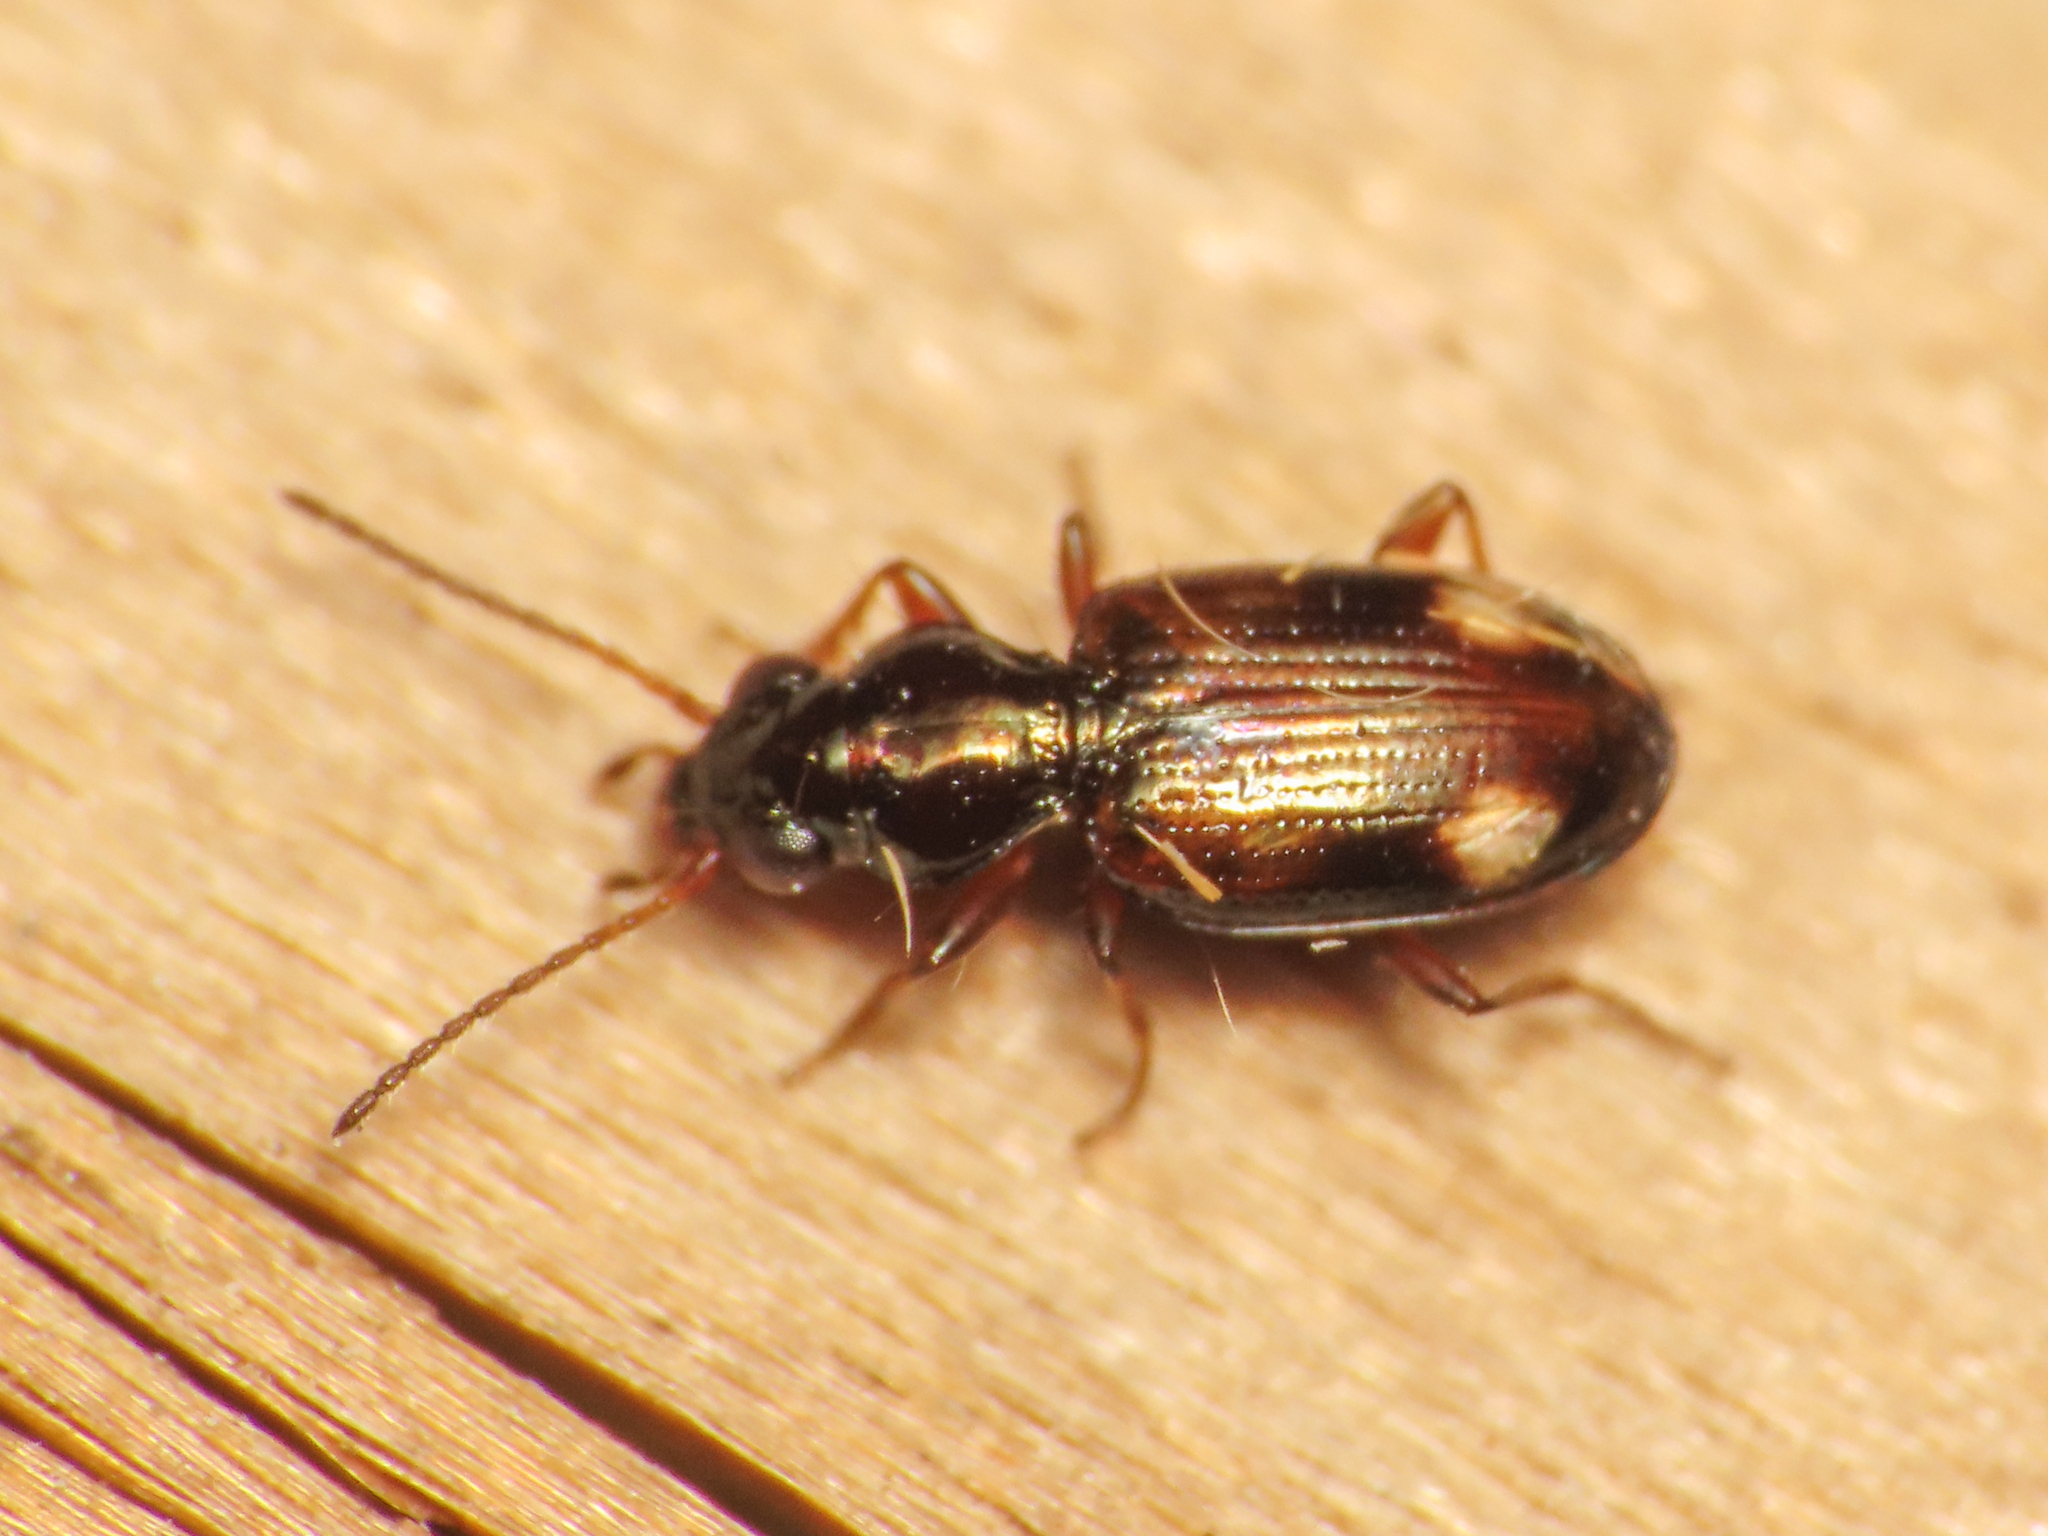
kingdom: Animalia
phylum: Arthropoda
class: Insecta
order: Coleoptera
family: Carabidae
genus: Bembidion
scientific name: Bembidion latiplaga
